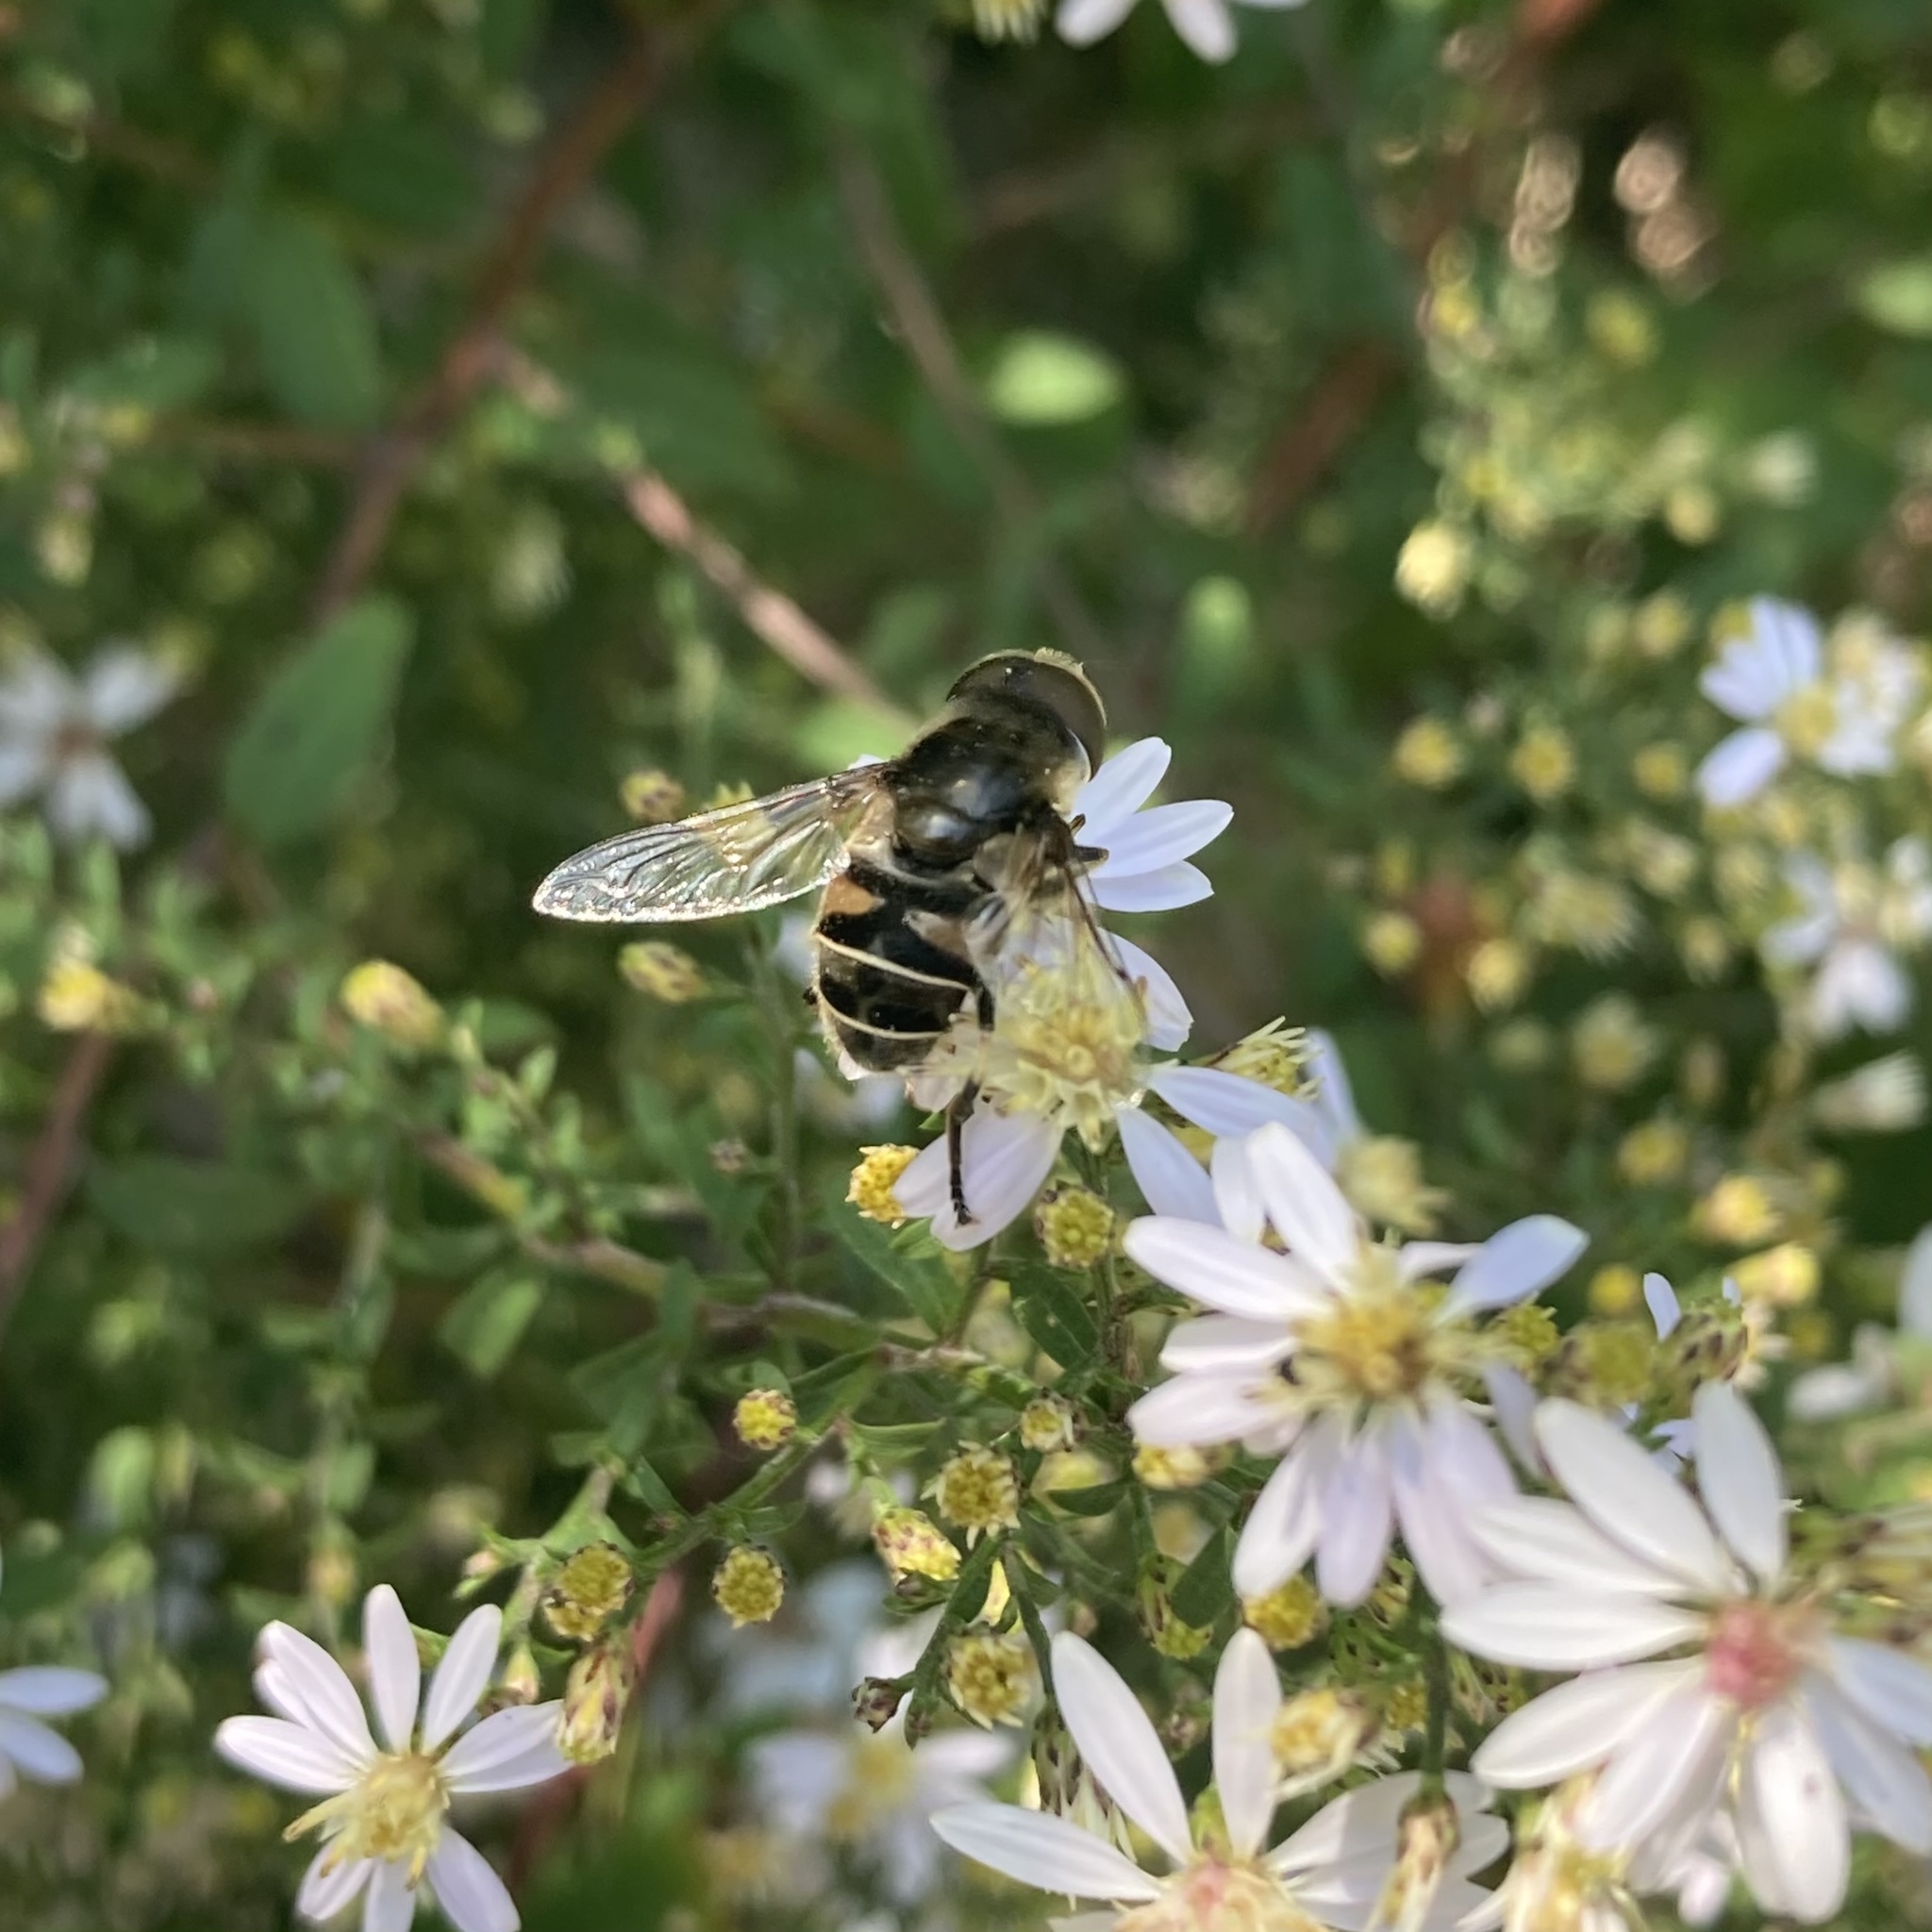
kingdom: Animalia
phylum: Arthropoda
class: Insecta
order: Diptera
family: Syrphidae
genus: Eristalis
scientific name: Eristalis dimidiata
